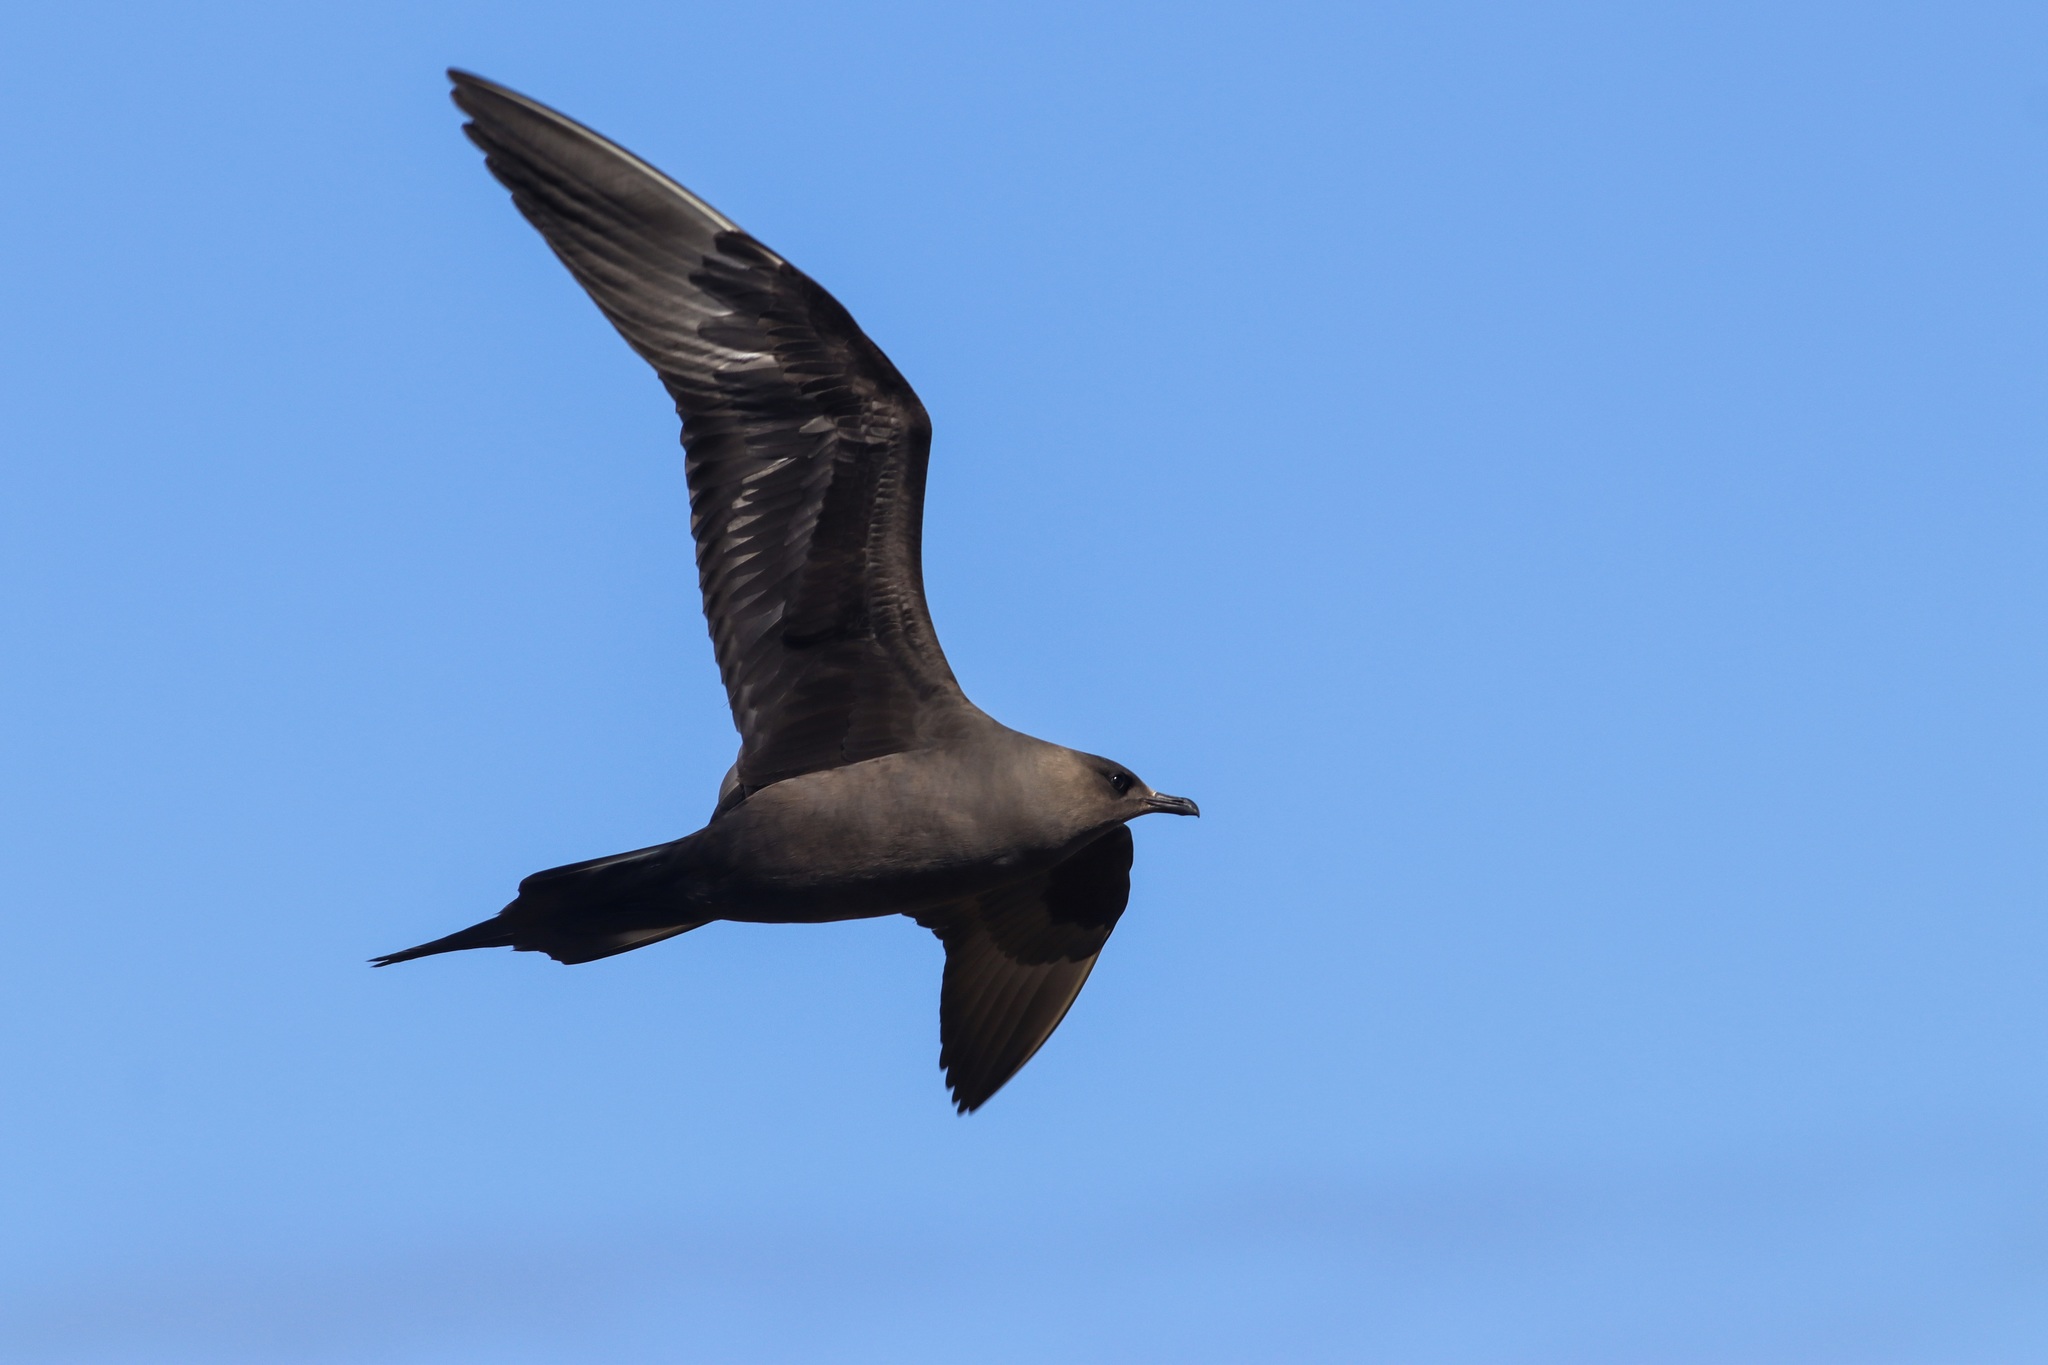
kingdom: Animalia
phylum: Chordata
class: Aves
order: Charadriiformes
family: Stercorariidae
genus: Stercorarius
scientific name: Stercorarius parasiticus
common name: Parasitic jaeger
